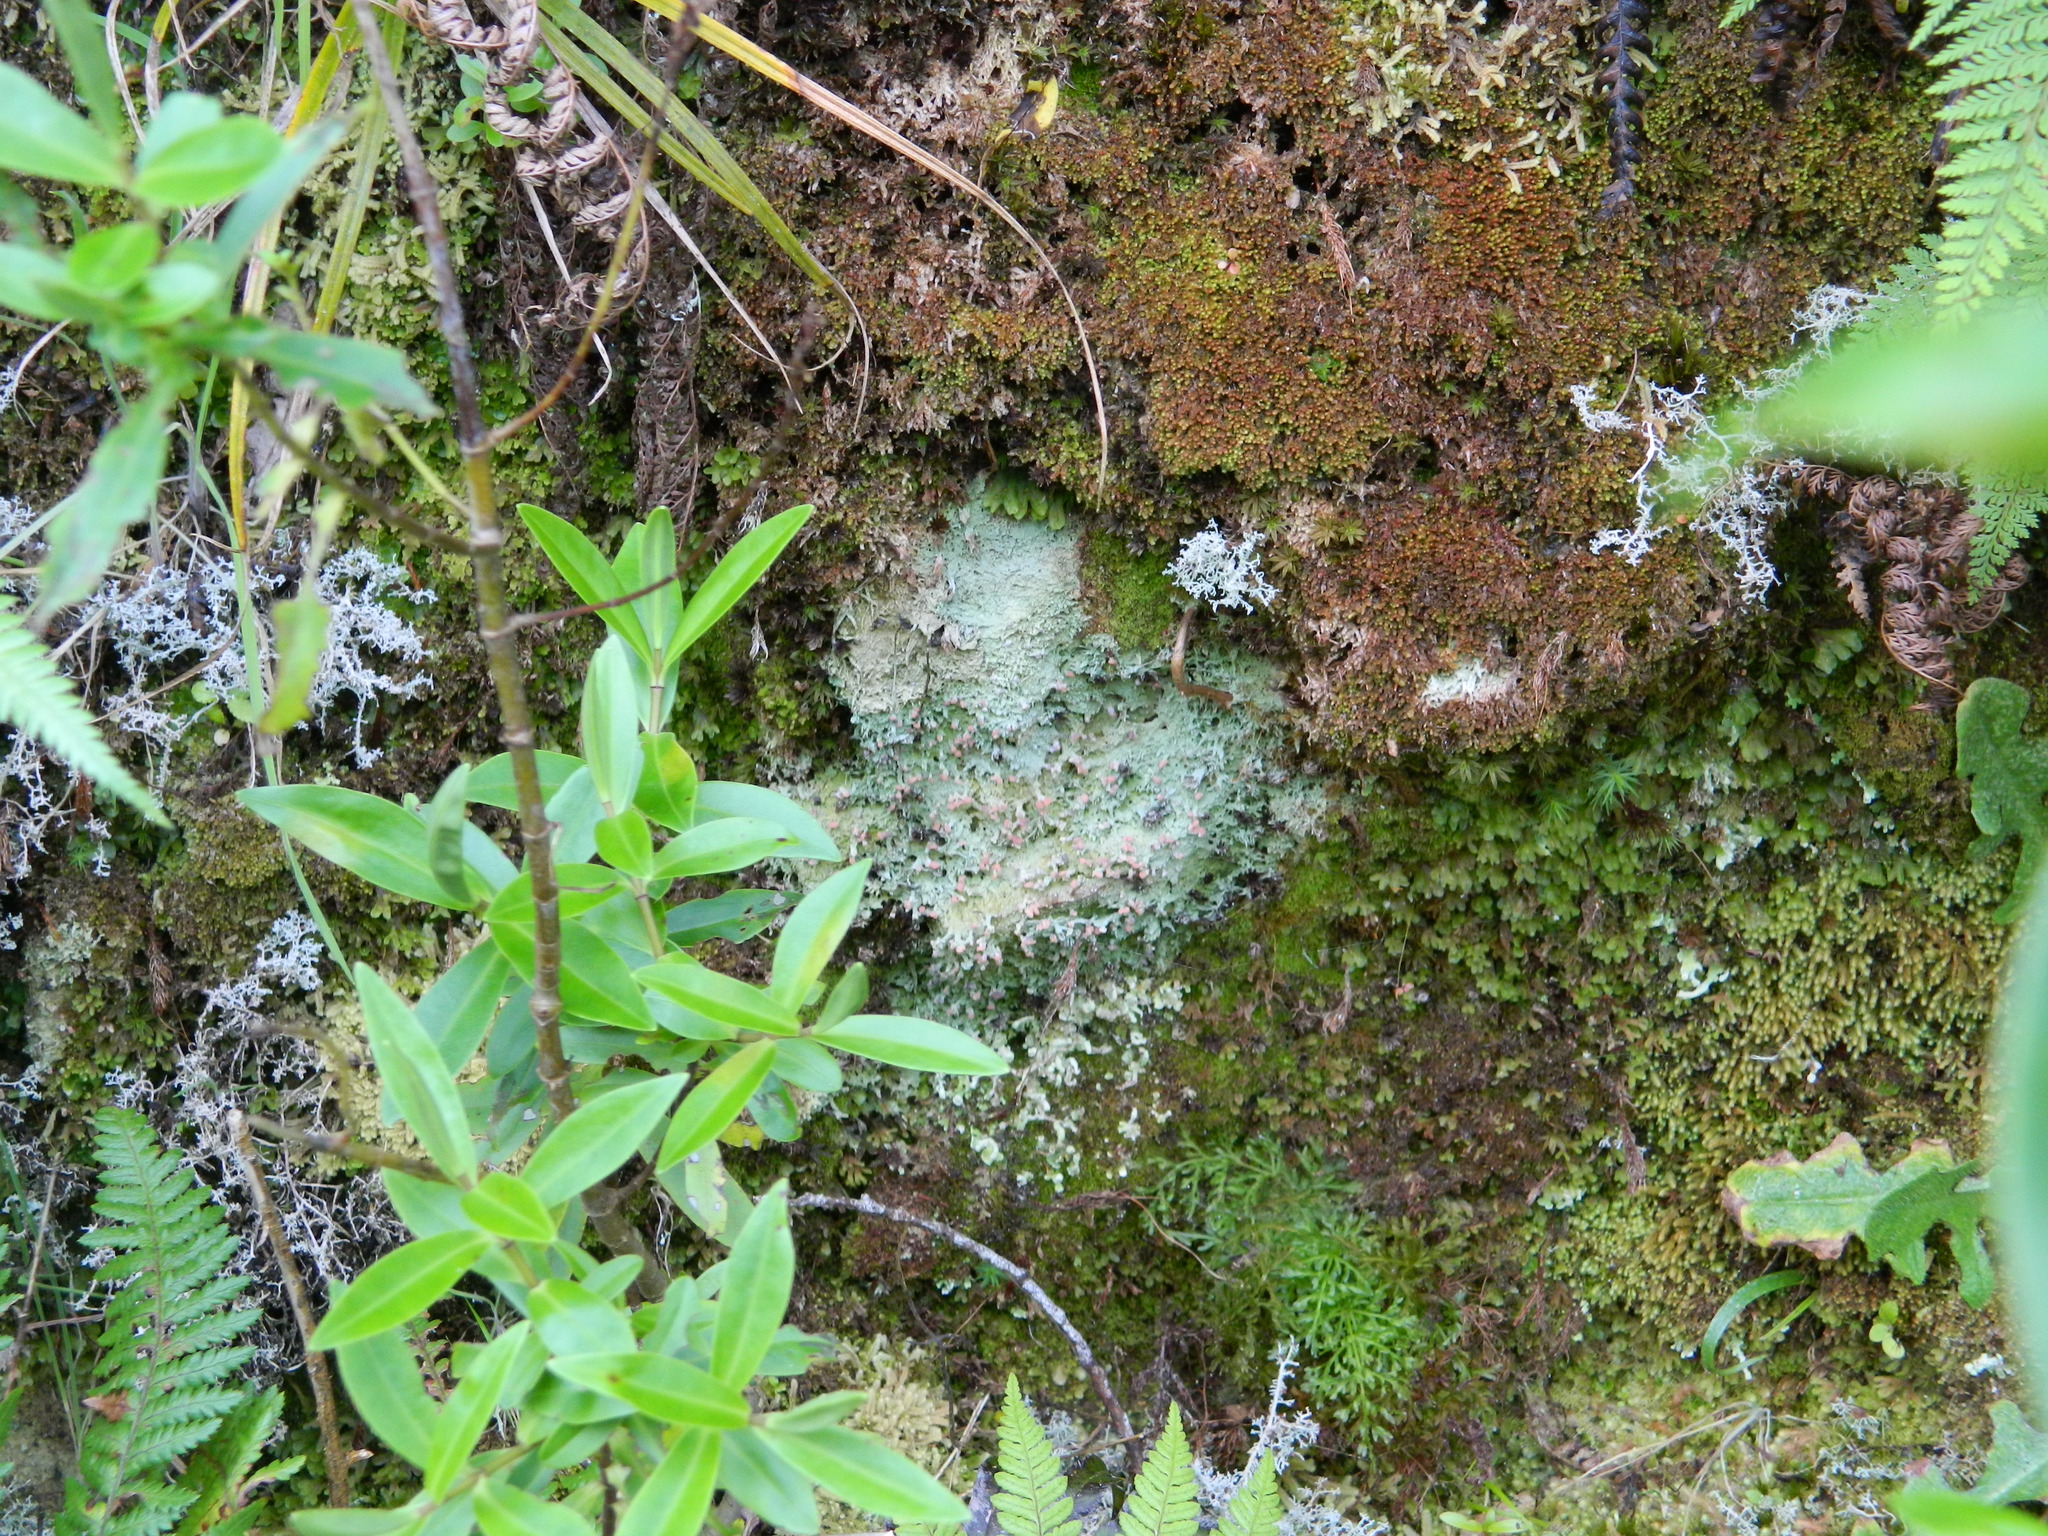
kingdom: Fungi
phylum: Ascomycota
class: Lecanoromycetes
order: Baeomycetales
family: Baeomycetaceae
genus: Baeomyces
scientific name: Baeomyces heteromorphus
